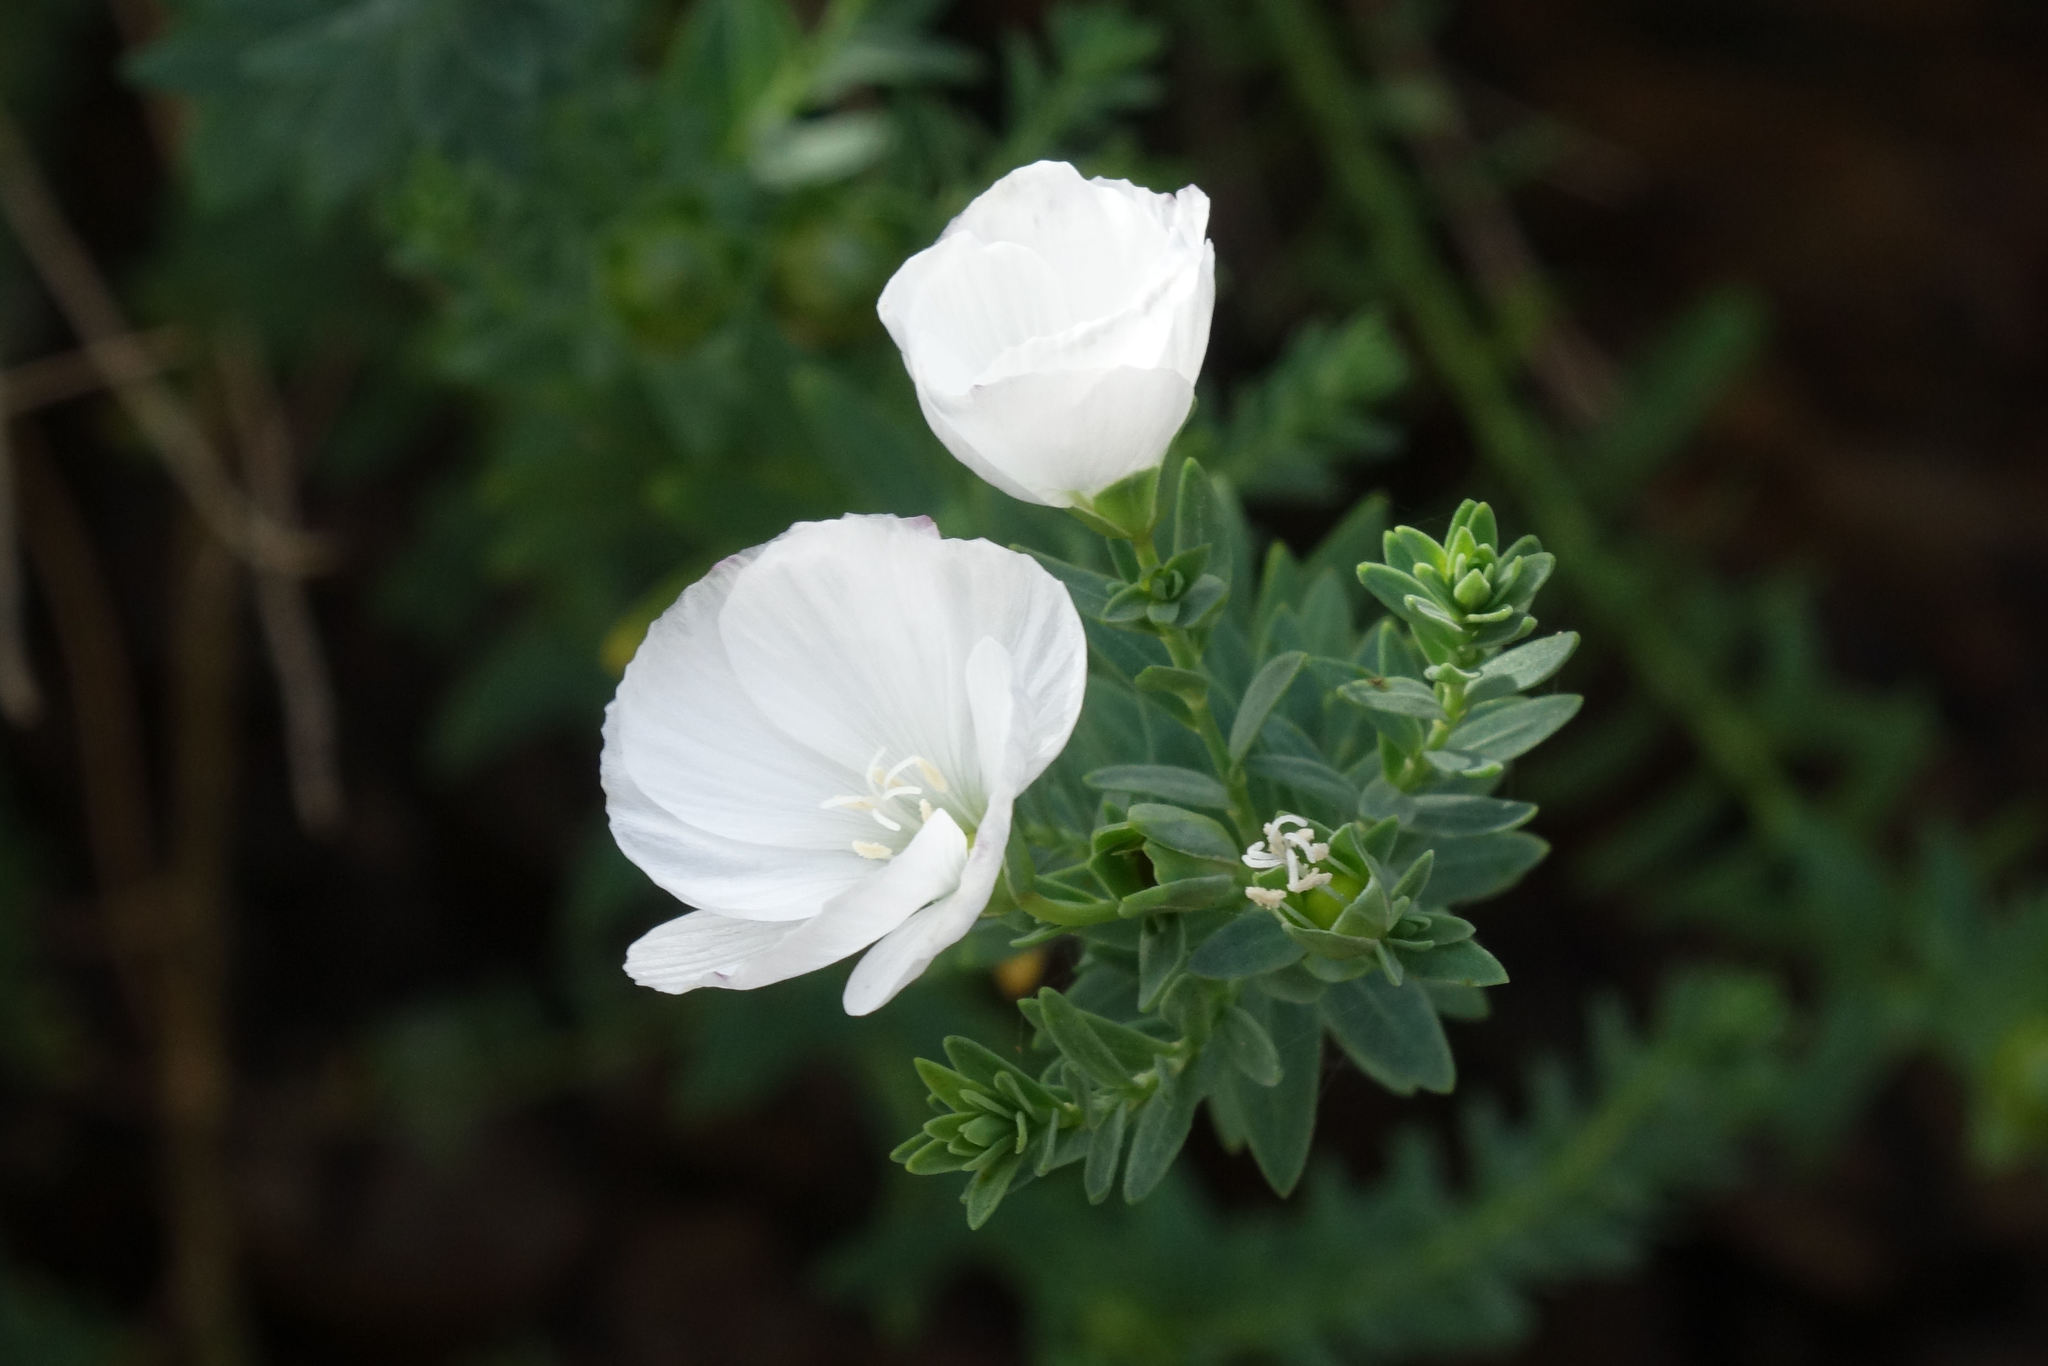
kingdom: Plantae
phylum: Tracheophyta
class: Magnoliopsida
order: Malpighiales
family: Linaceae
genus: Linum
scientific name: Linum monogynum
